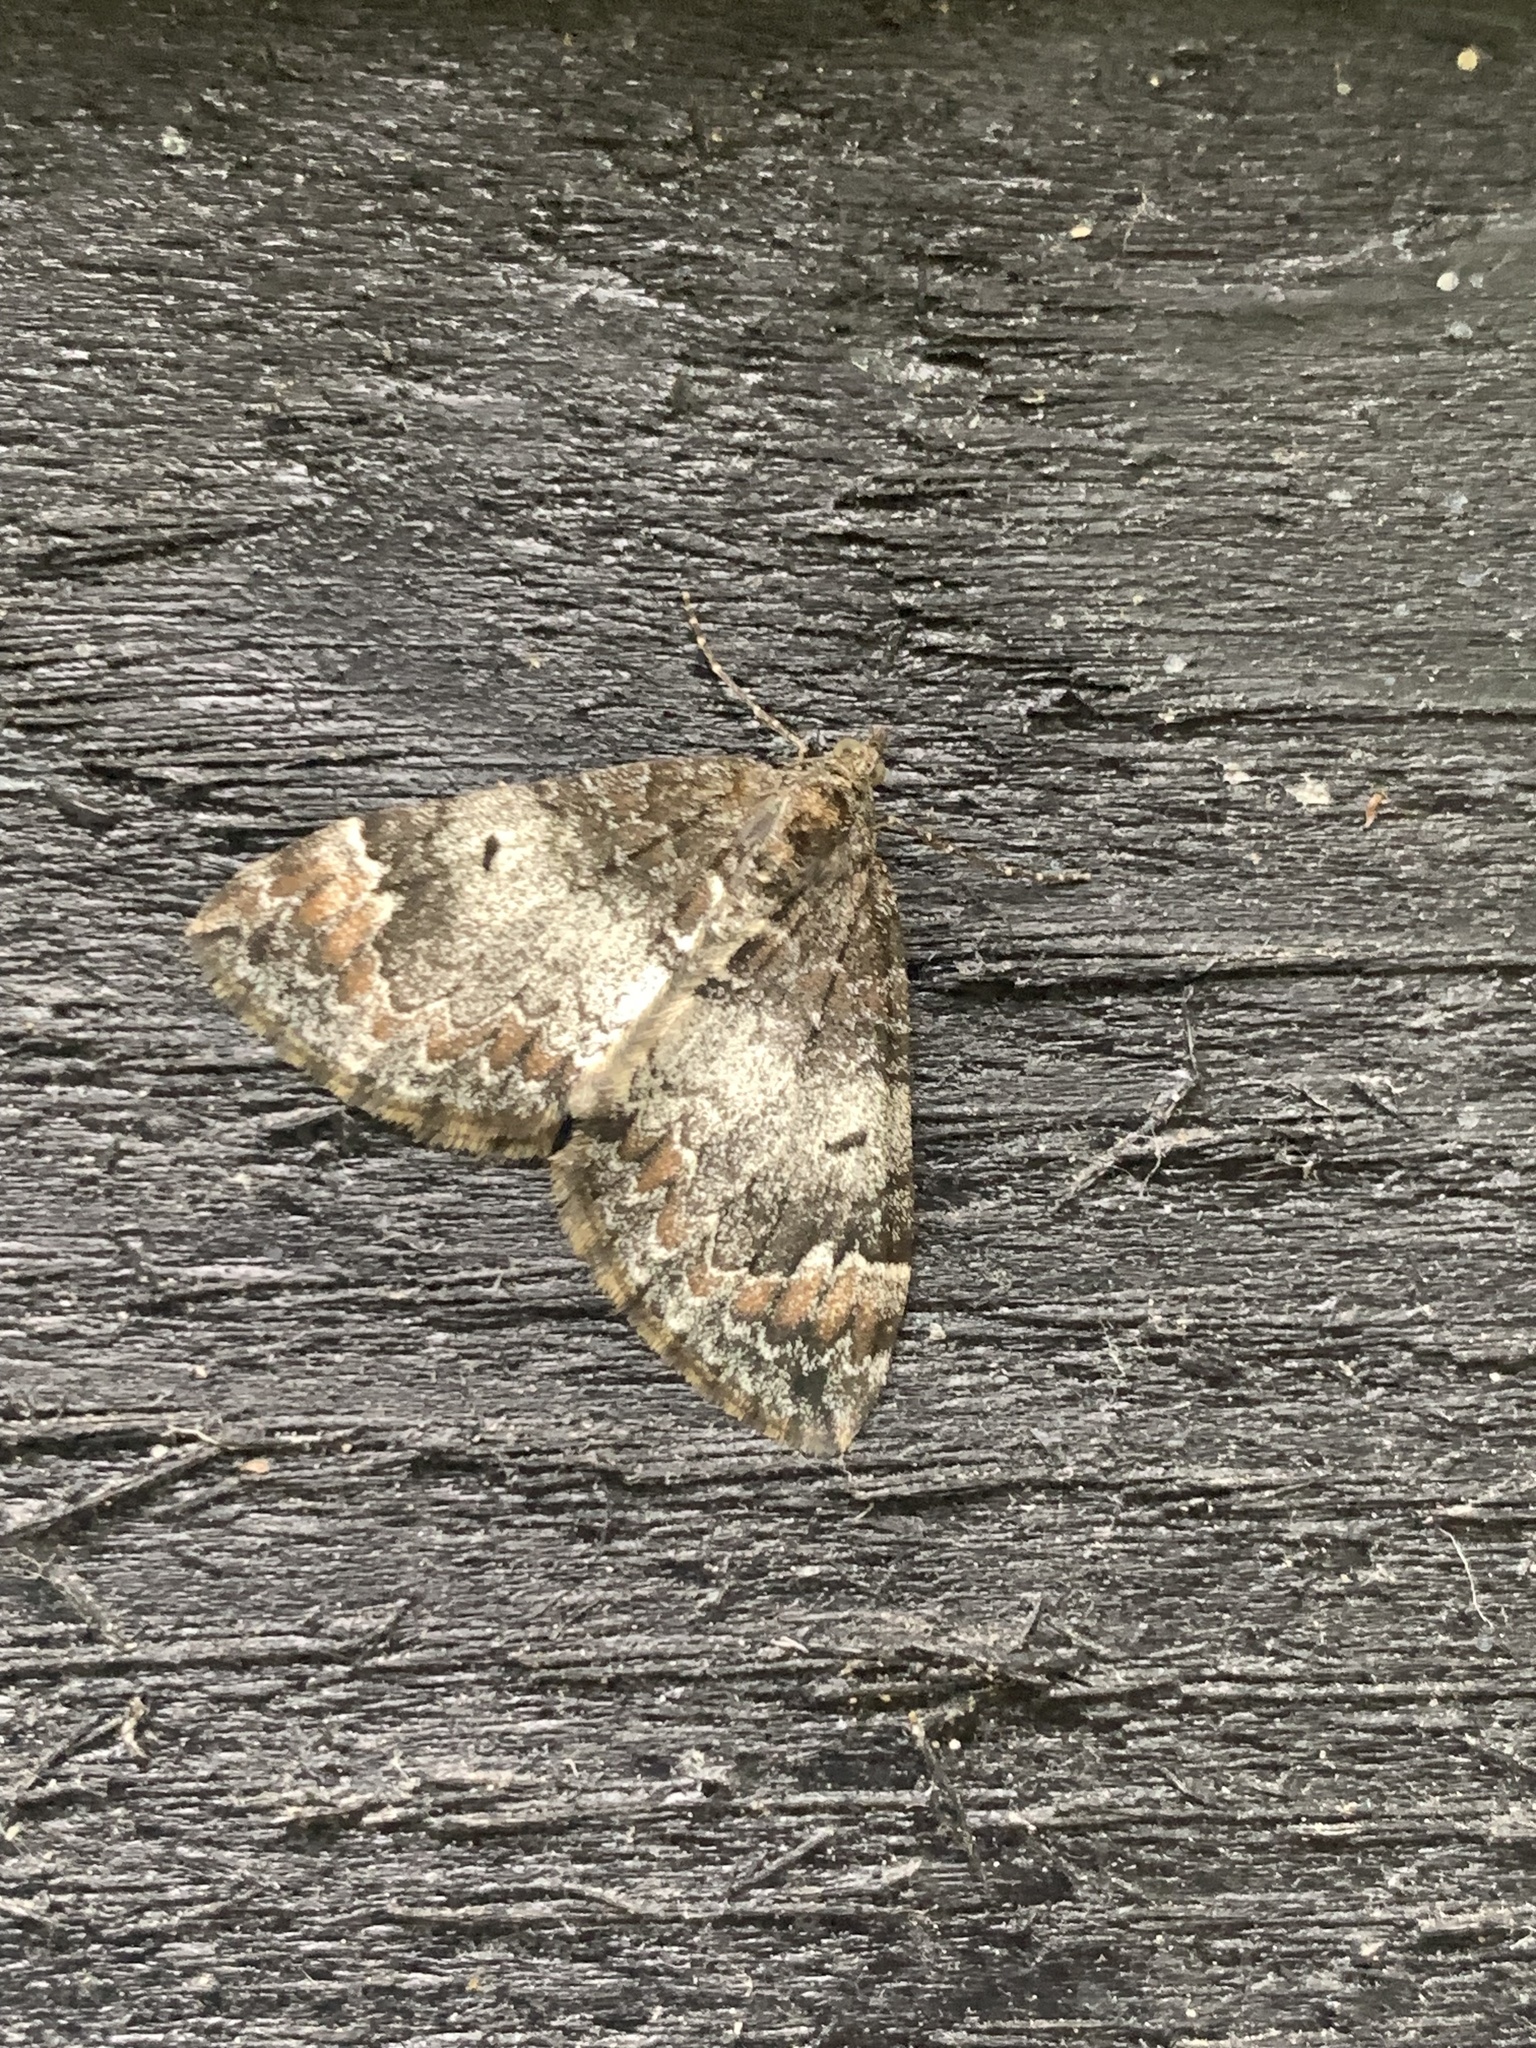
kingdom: Animalia
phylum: Arthropoda
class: Insecta
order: Lepidoptera
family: Geometridae
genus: Dysstroma
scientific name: Dysstroma truncata
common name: Common marbled carpet
